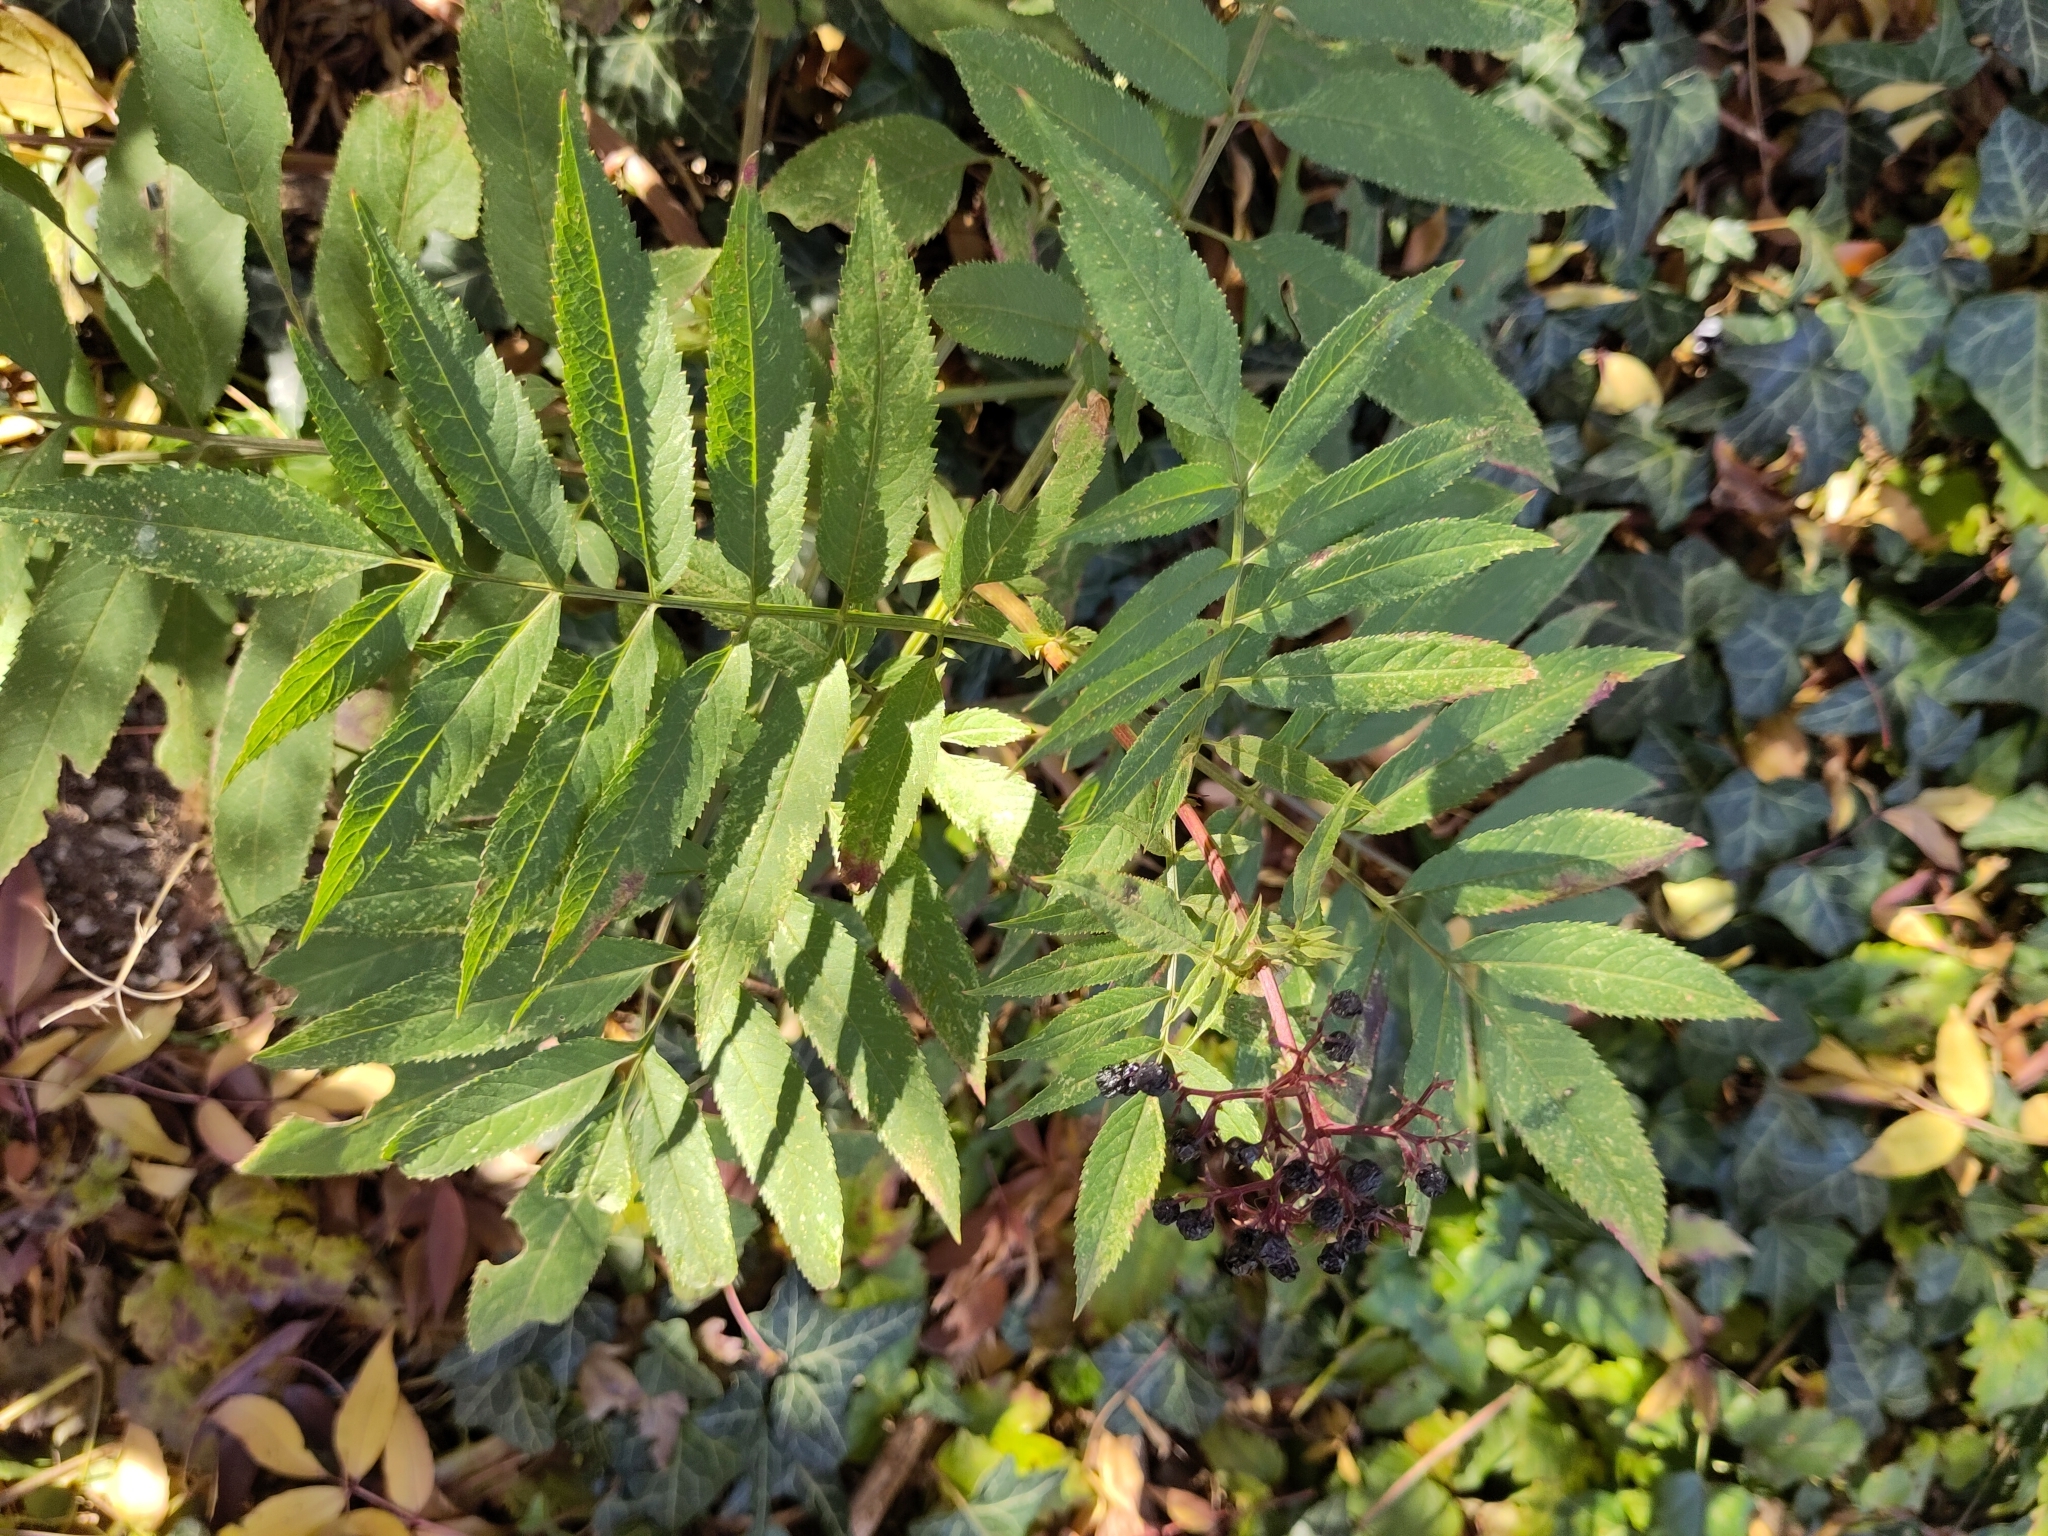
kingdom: Plantae
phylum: Tracheophyta
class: Magnoliopsida
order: Dipsacales
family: Viburnaceae
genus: Sambucus
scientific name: Sambucus ebulus
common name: Dwarf elder
